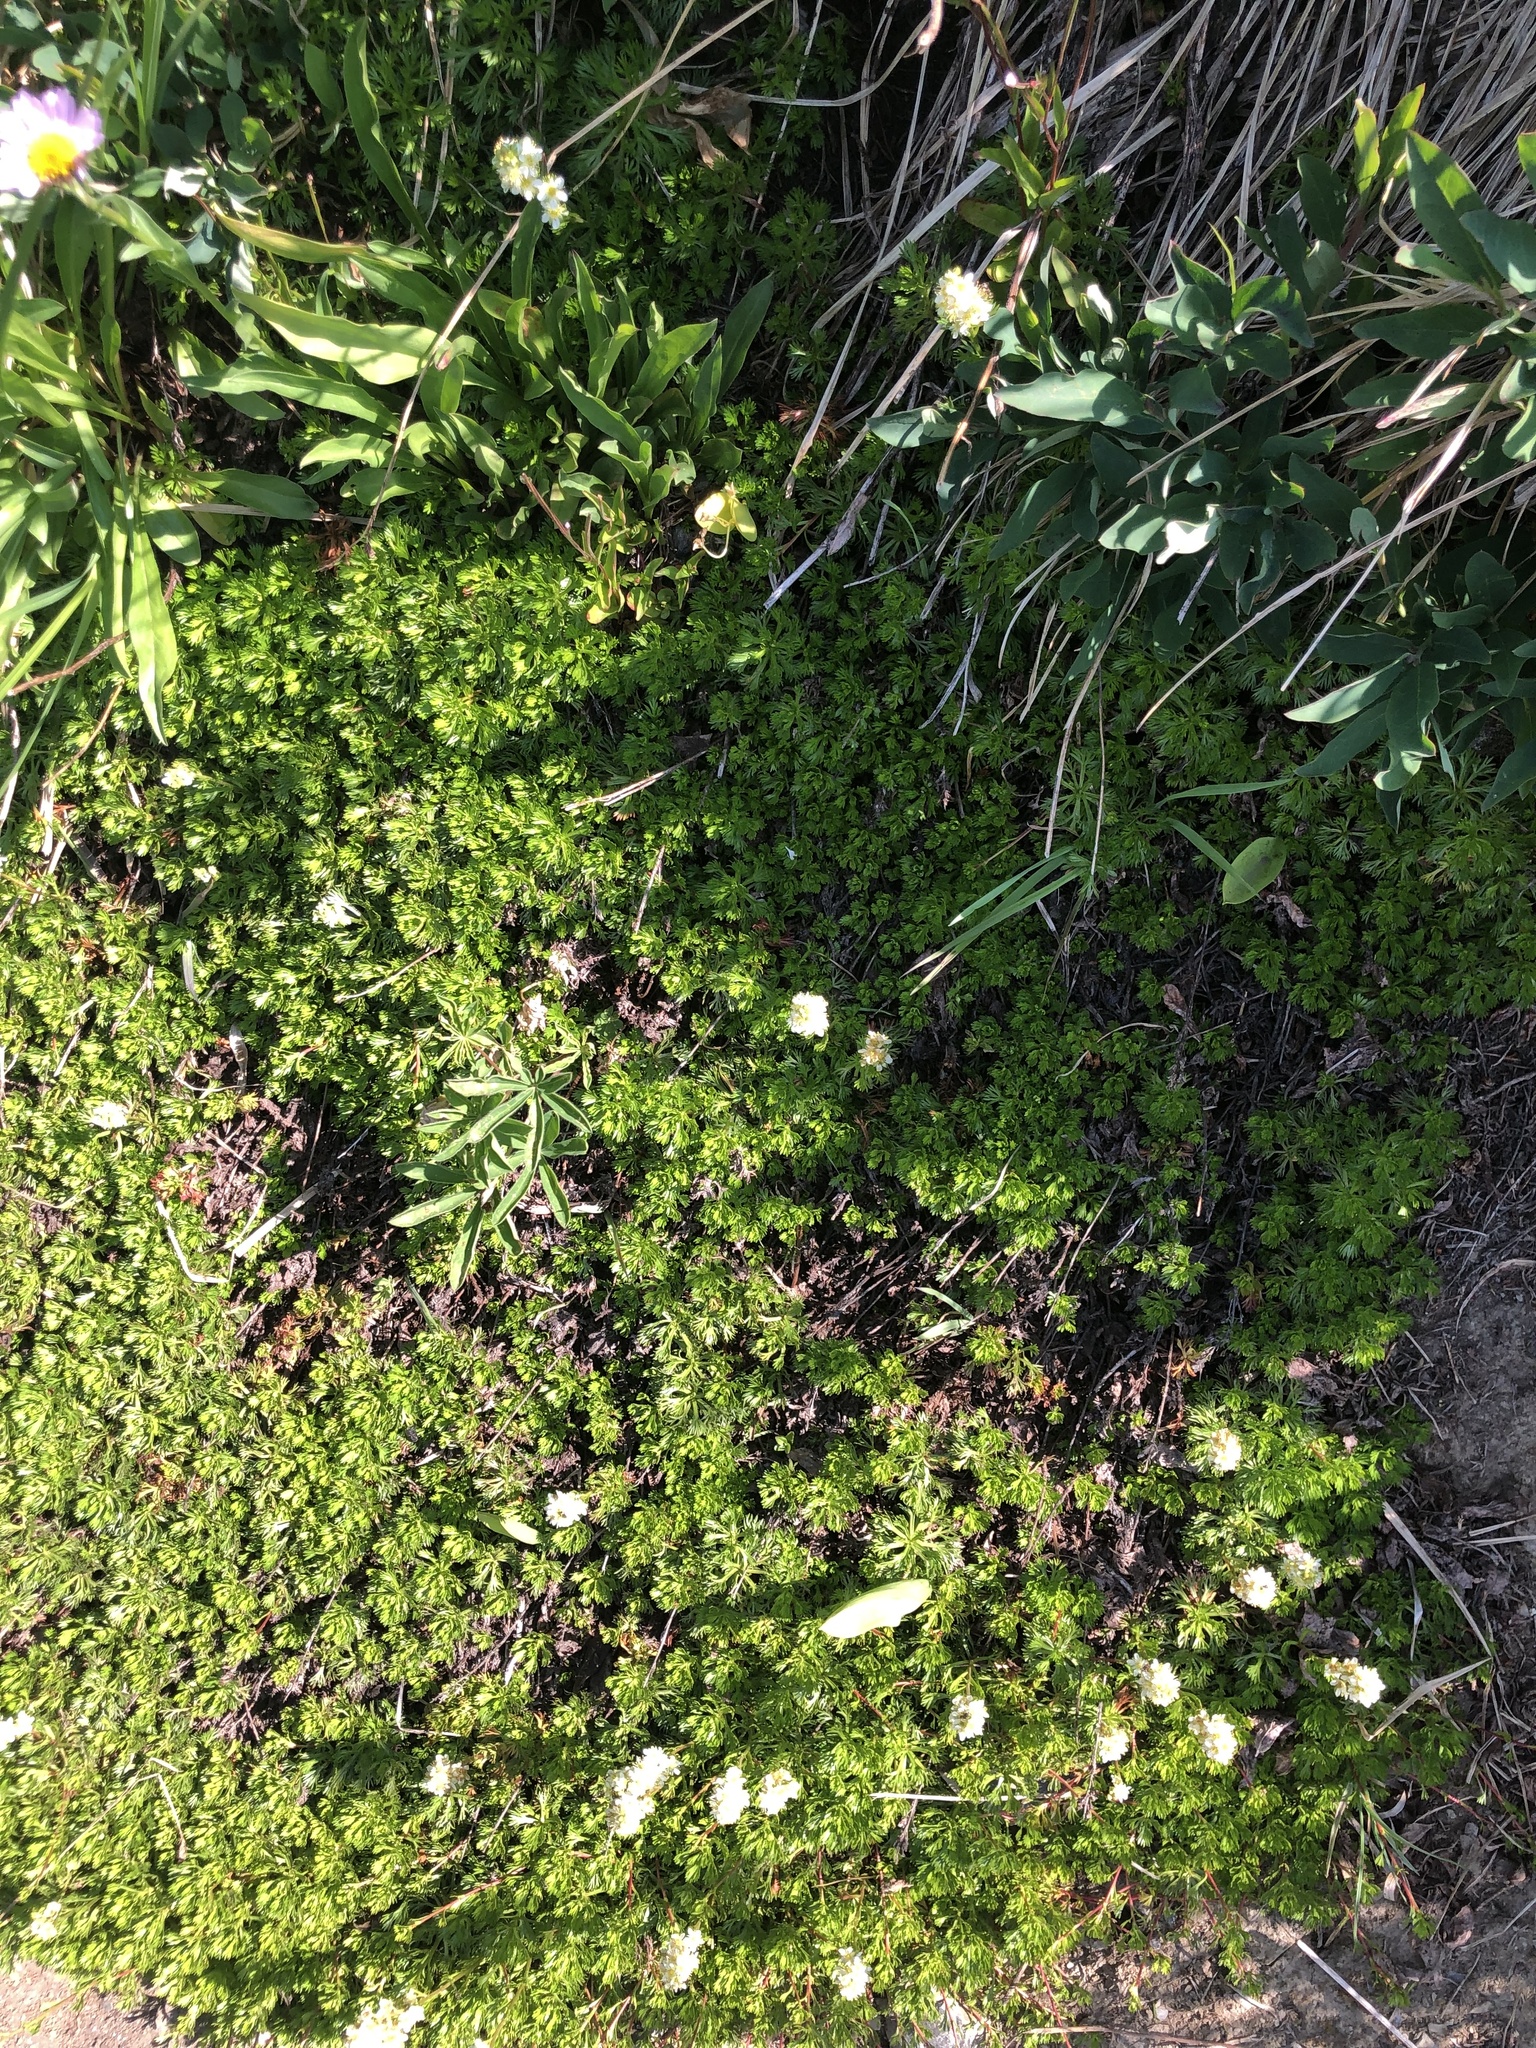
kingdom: Plantae
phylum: Tracheophyta
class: Magnoliopsida
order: Rosales
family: Rosaceae
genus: Luetkea
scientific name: Luetkea pectinata
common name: Partridgefoot
